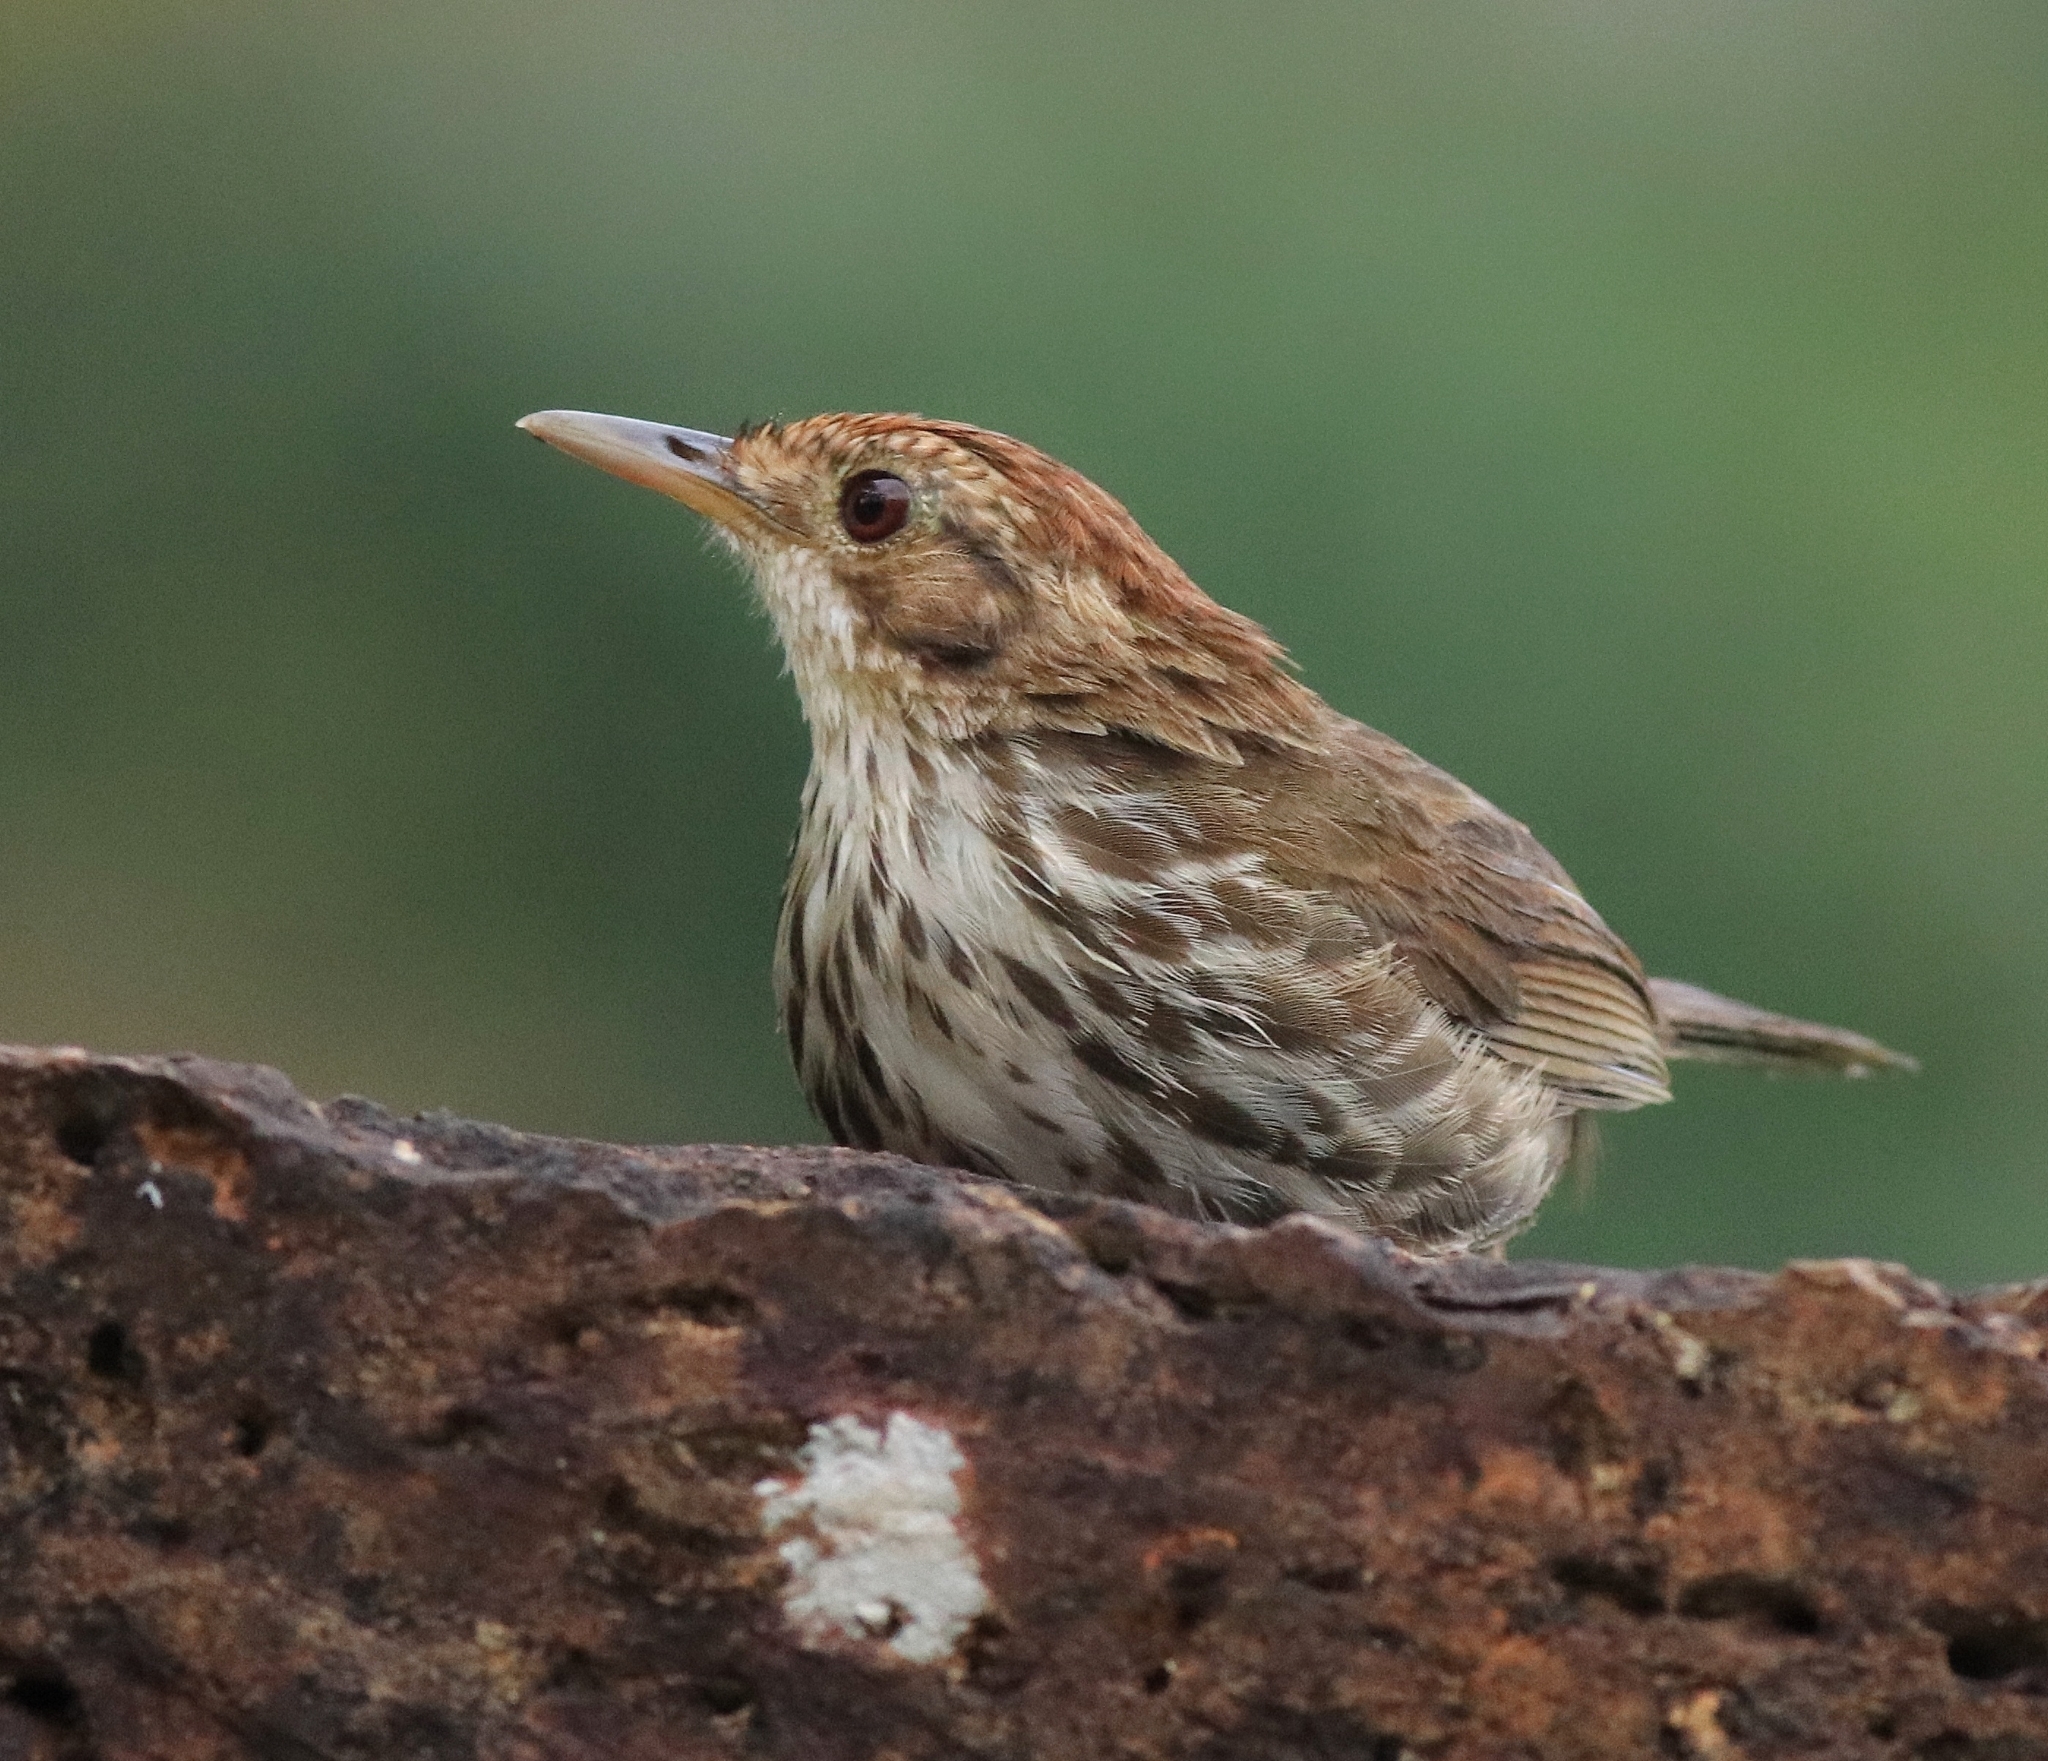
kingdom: Animalia
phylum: Chordata
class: Aves
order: Passeriformes
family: Pellorneidae
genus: Pellorneum
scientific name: Pellorneum ruficeps
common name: Puff-throated babbler
